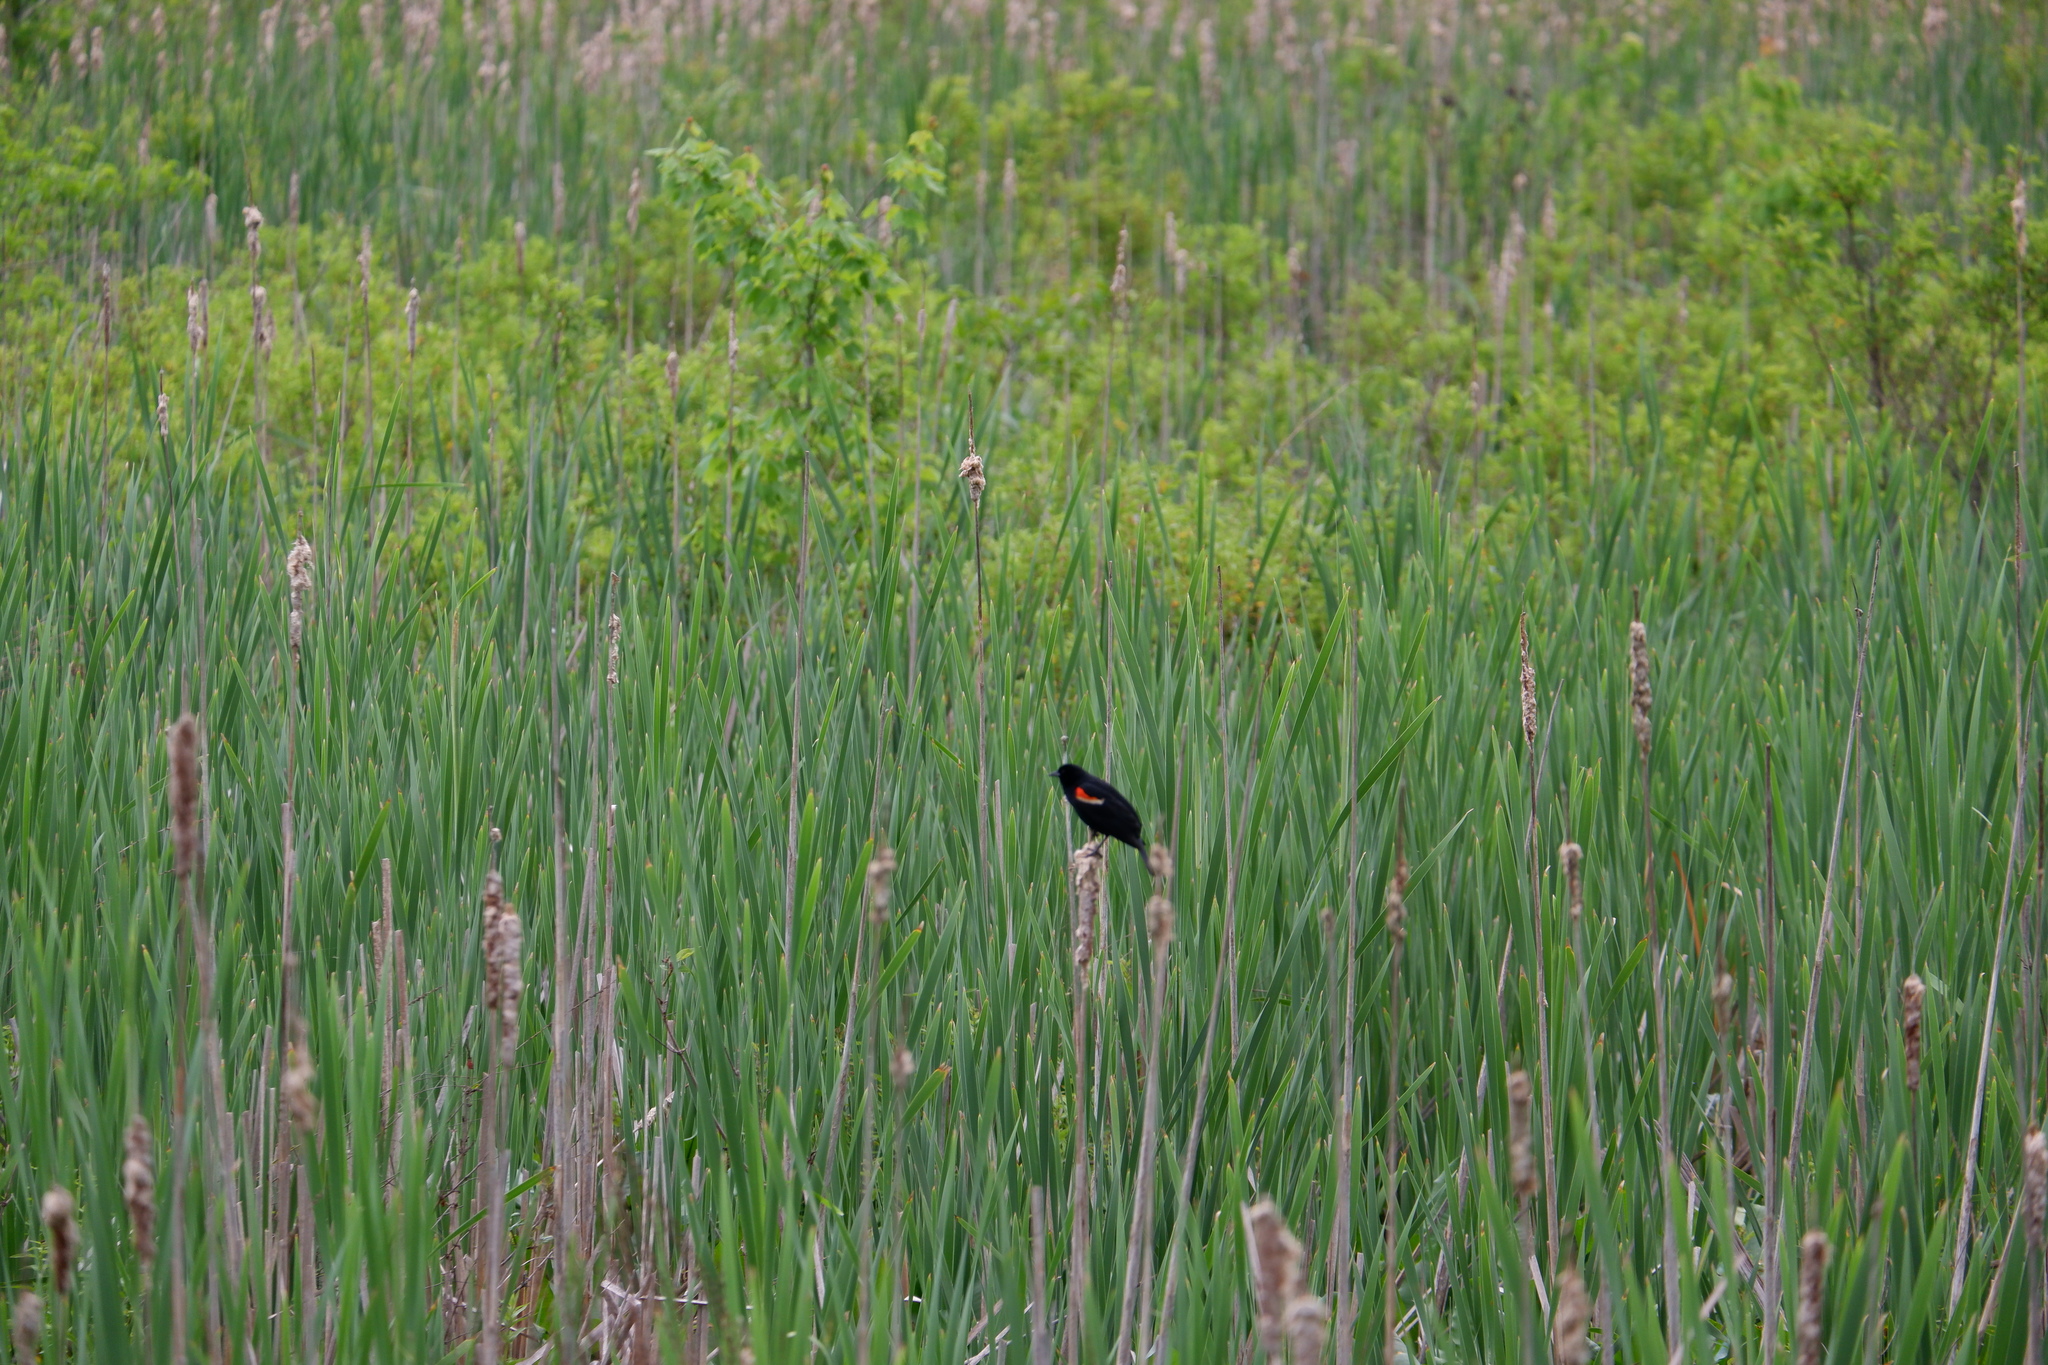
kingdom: Animalia
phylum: Chordata
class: Aves
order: Passeriformes
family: Icteridae
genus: Agelaius
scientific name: Agelaius phoeniceus
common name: Red-winged blackbird
